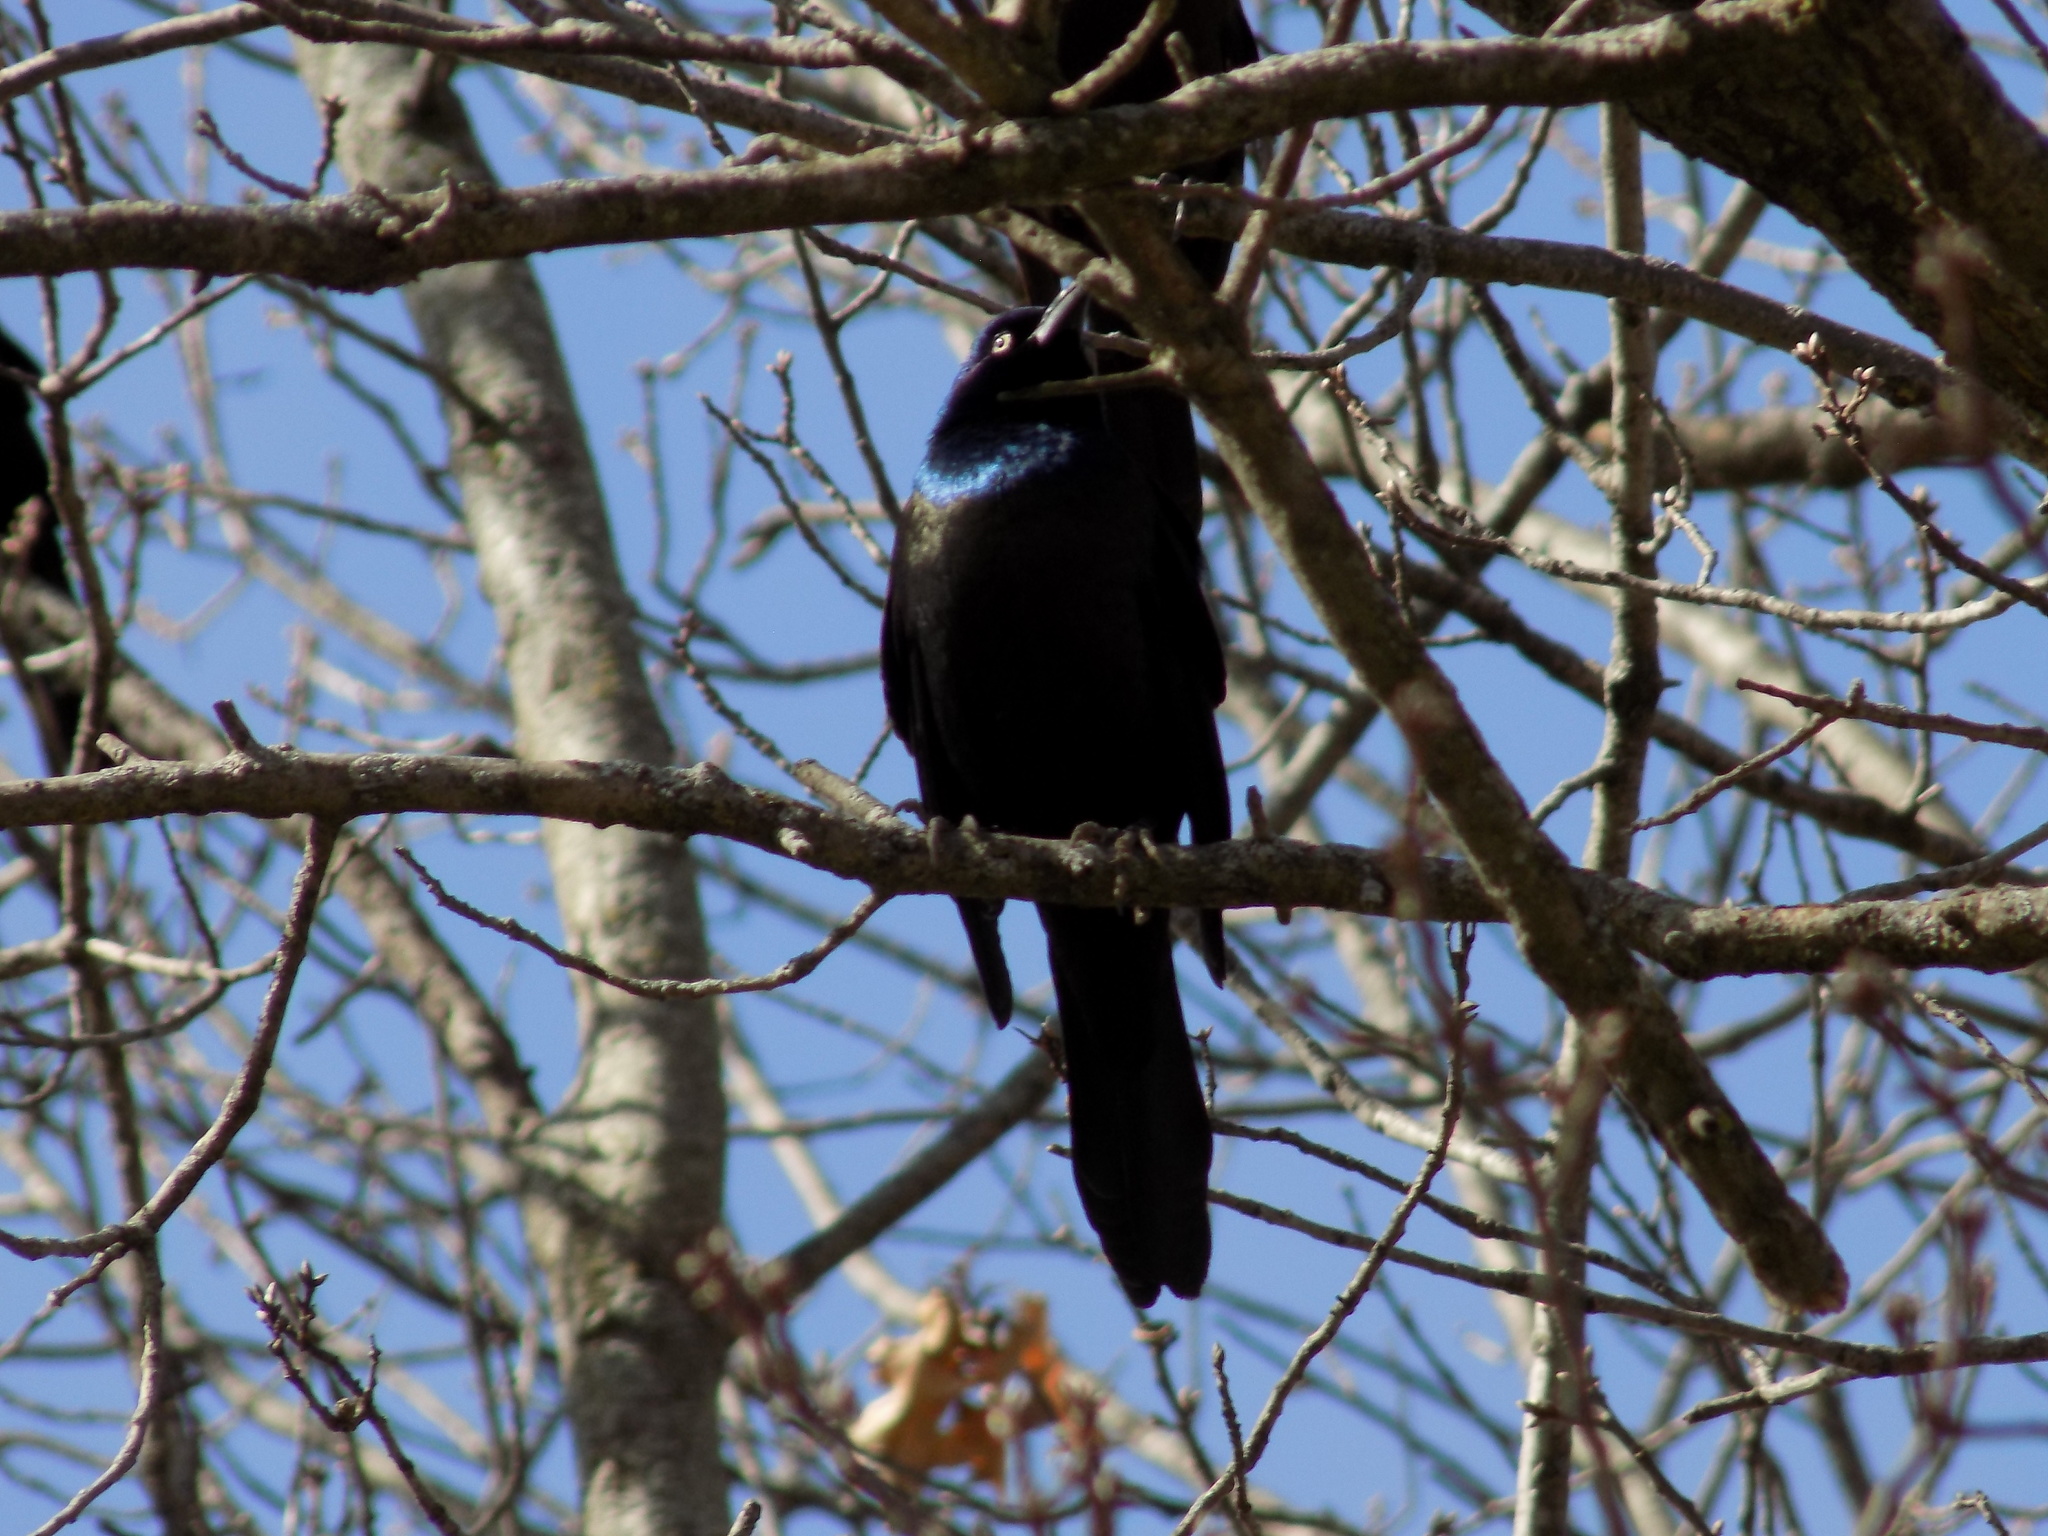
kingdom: Animalia
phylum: Chordata
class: Aves
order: Passeriformes
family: Icteridae
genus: Quiscalus
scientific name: Quiscalus quiscula
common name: Common grackle
